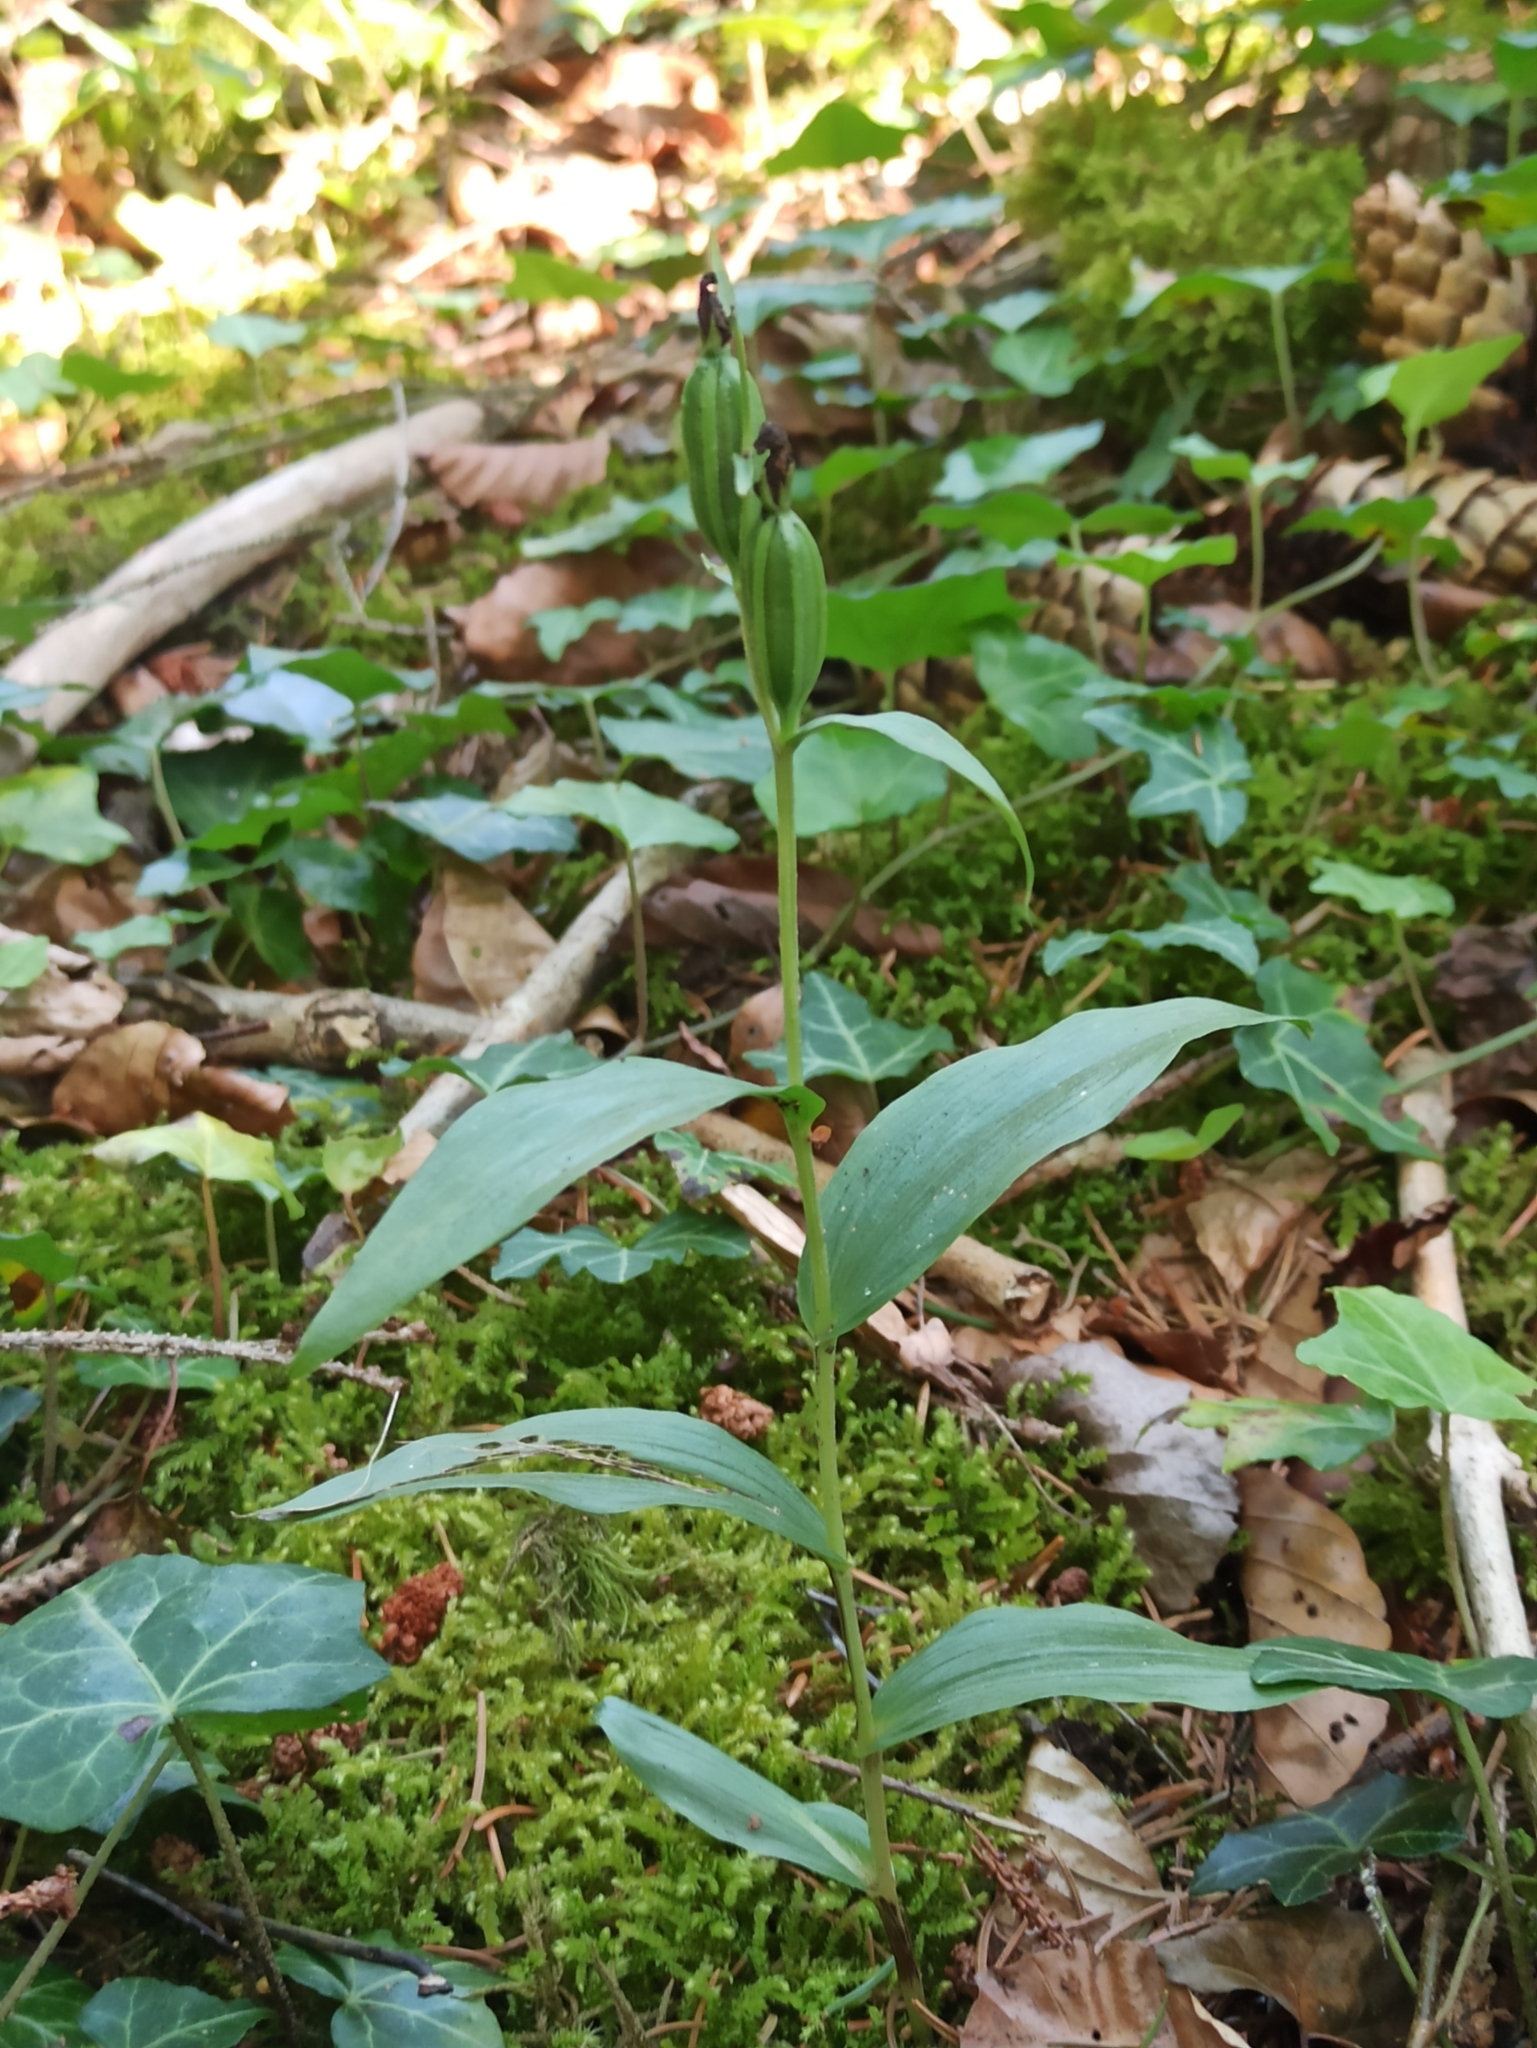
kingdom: Plantae
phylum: Tracheophyta
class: Liliopsida
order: Asparagales
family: Orchidaceae
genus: Cephalanthera
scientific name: Cephalanthera damasonium
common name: White helleborine
